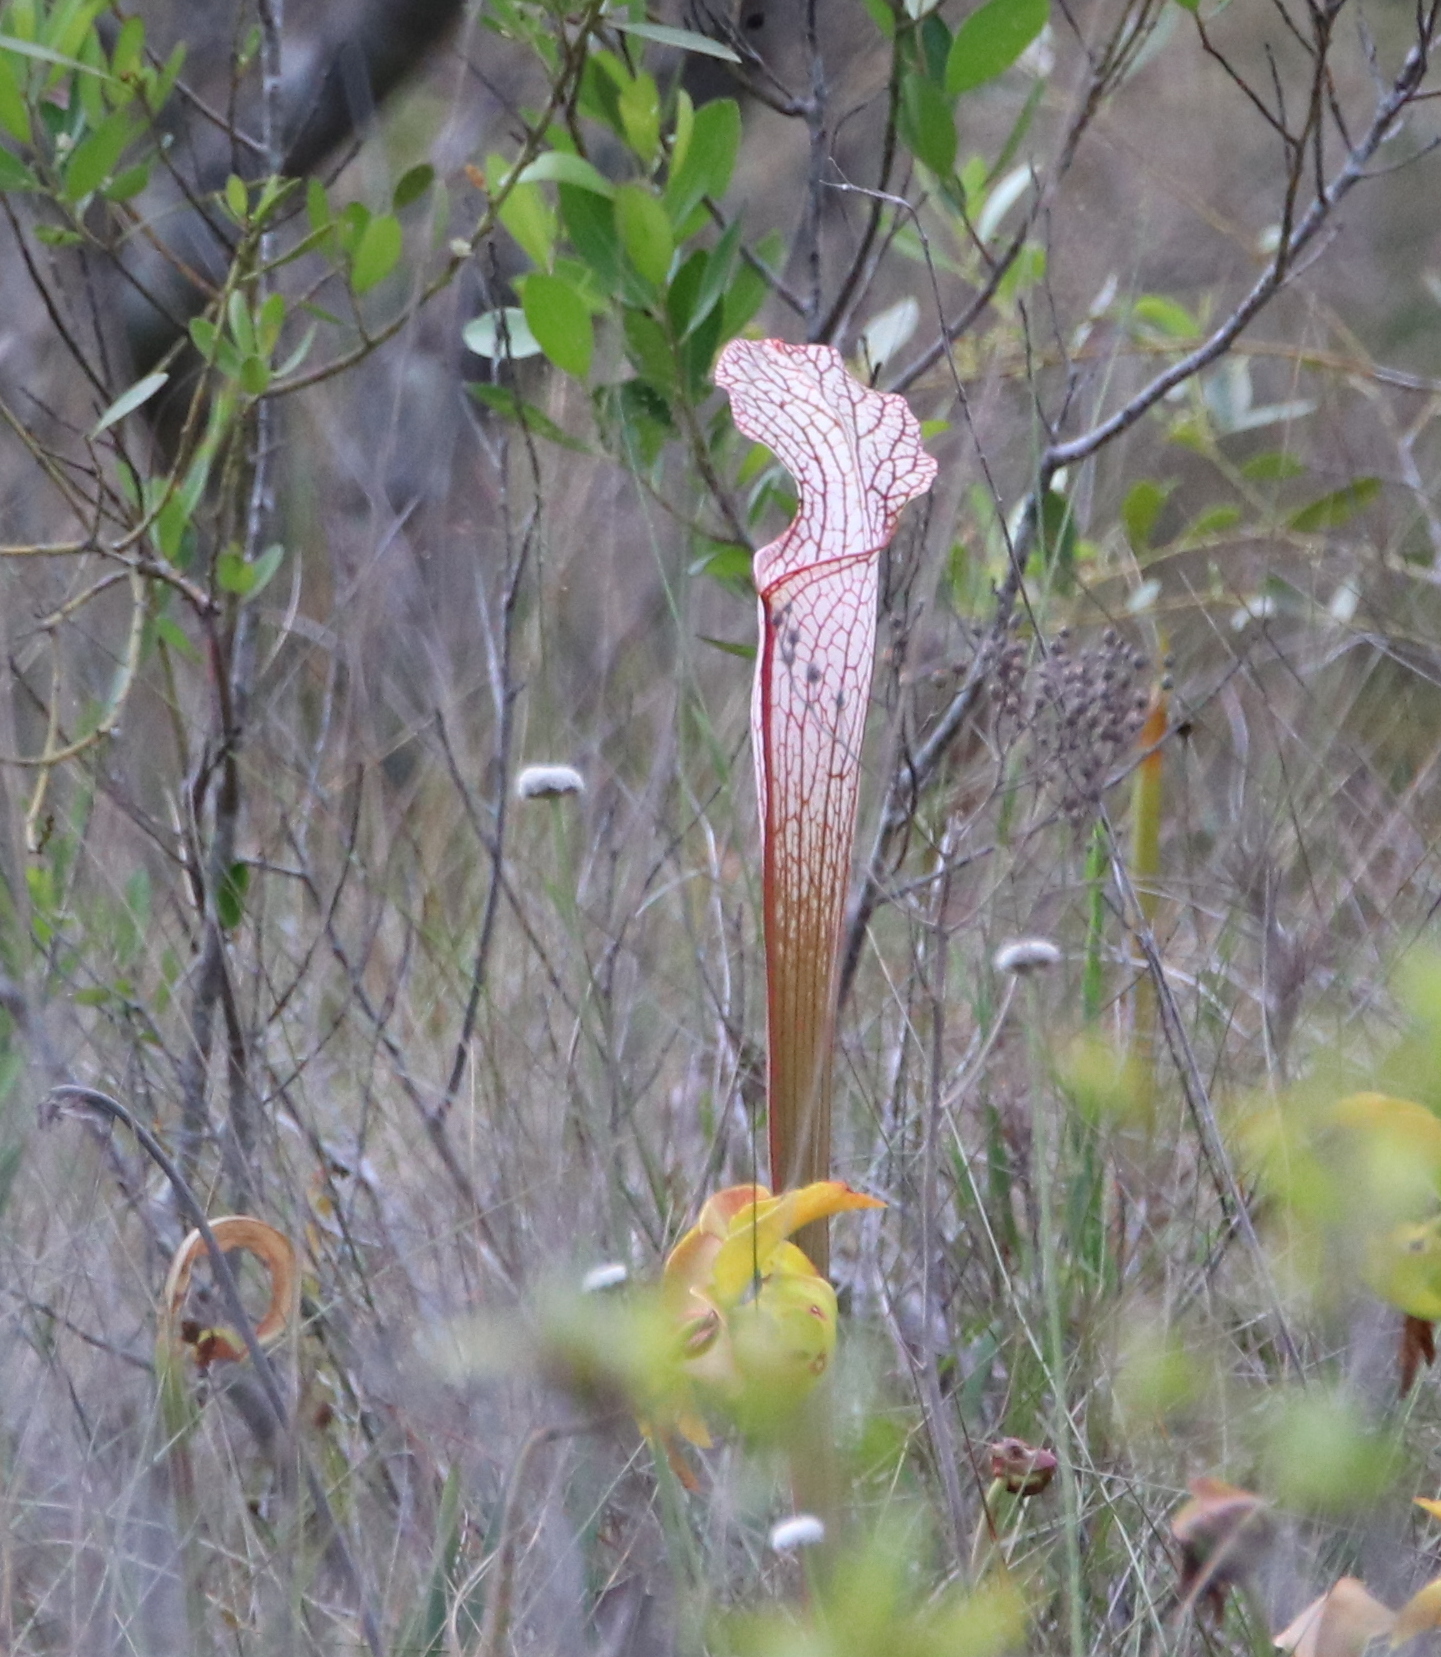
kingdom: Plantae
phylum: Tracheophyta
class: Magnoliopsida
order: Ericales
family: Sarraceniaceae
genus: Sarracenia
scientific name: Sarracenia leucophylla
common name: Purple trumpetleaf
